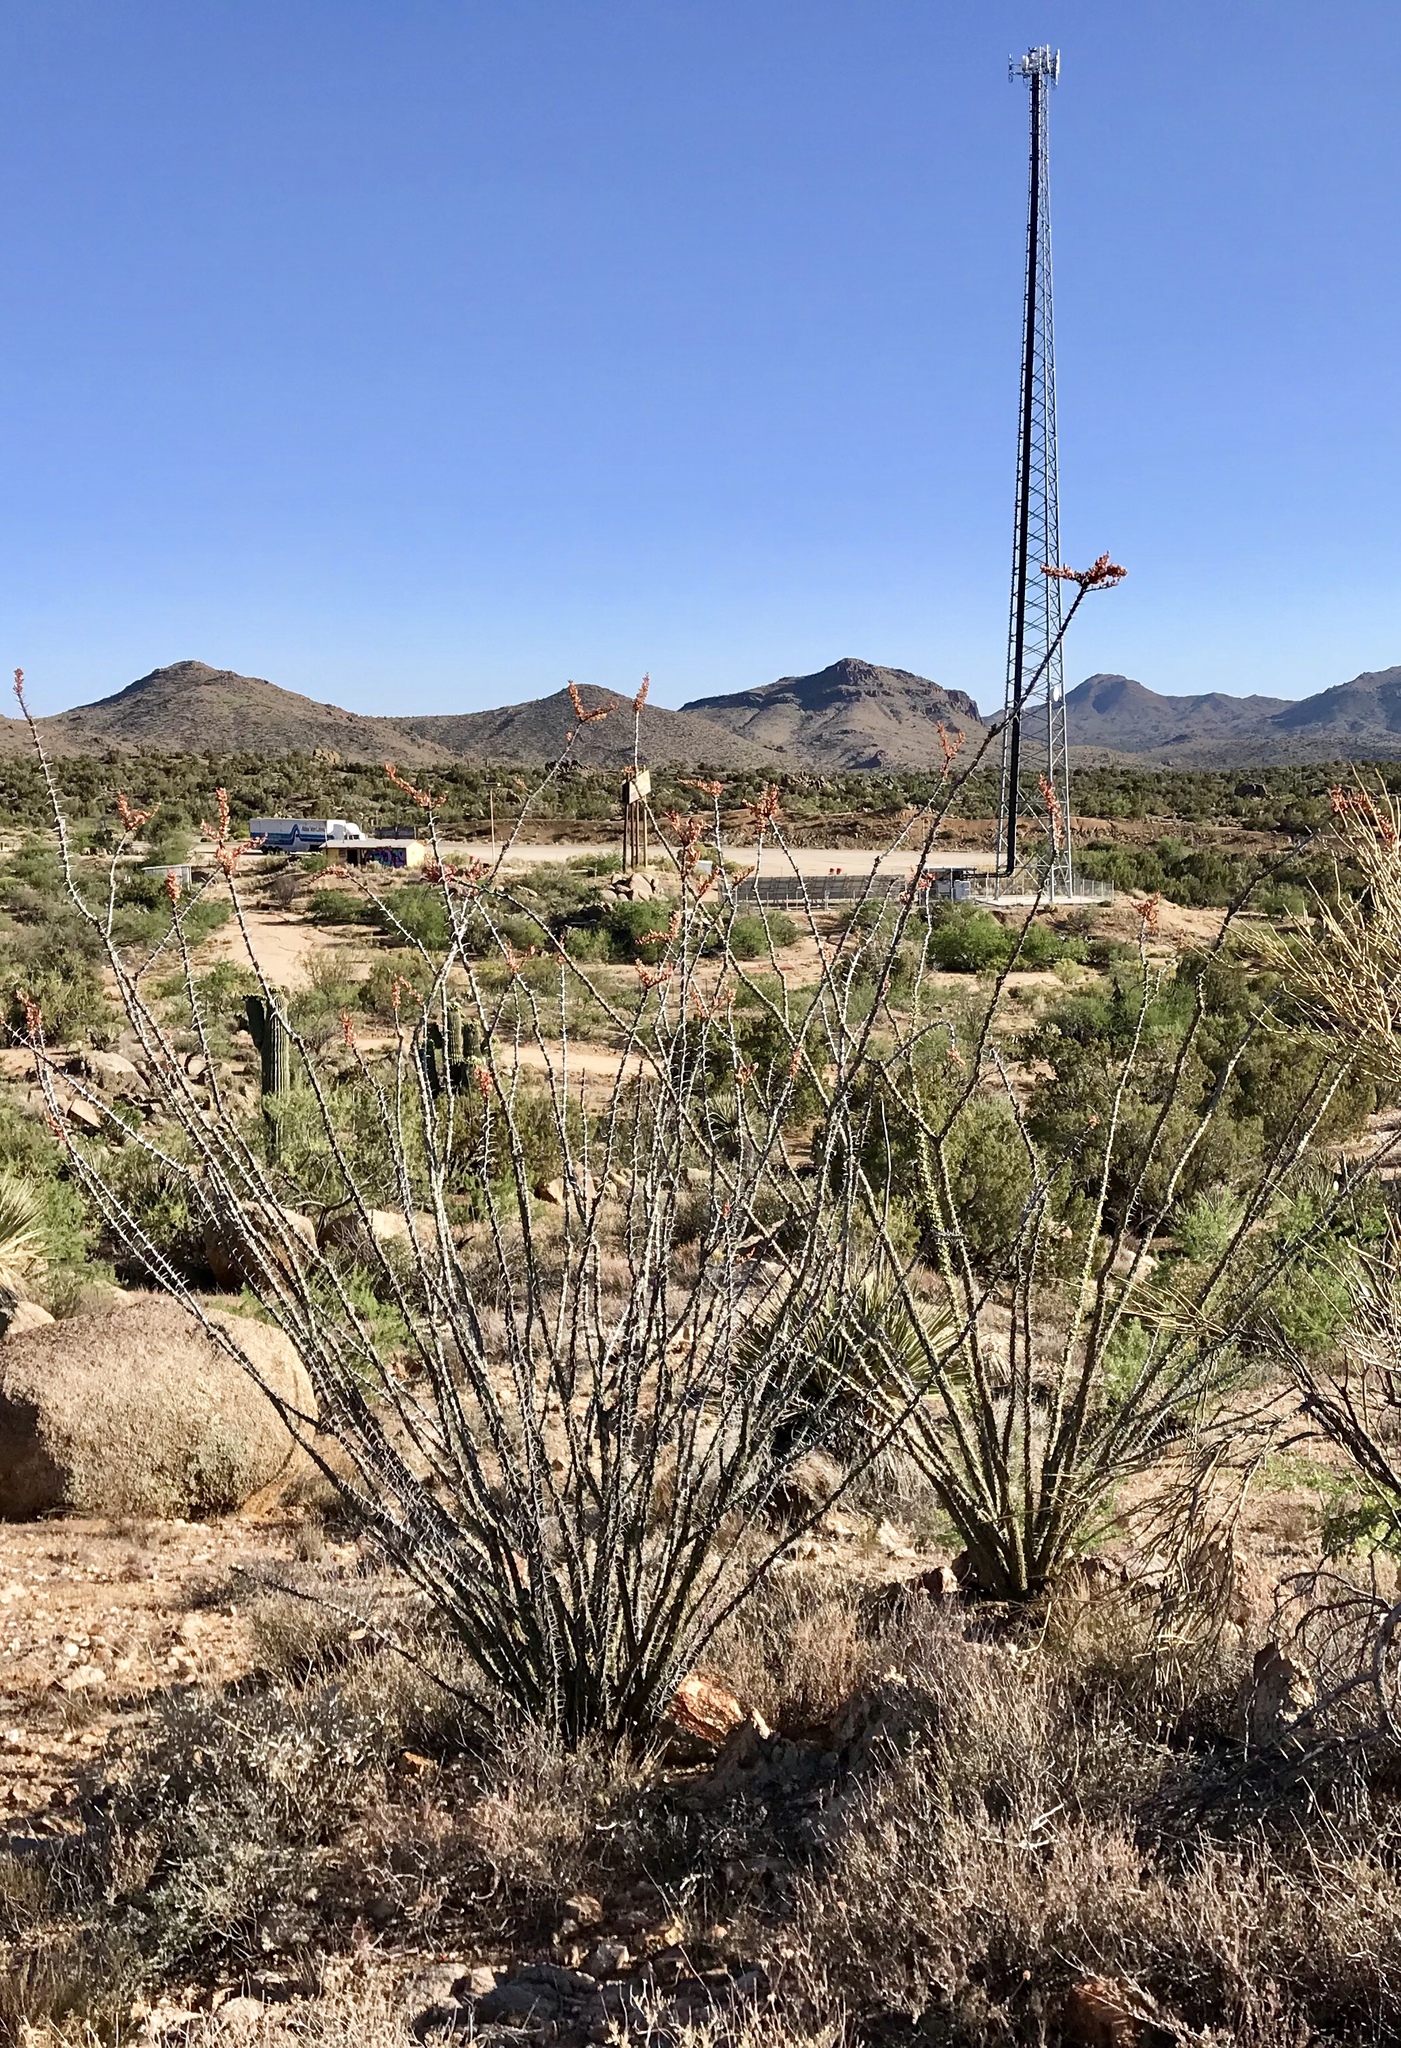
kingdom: Plantae
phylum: Tracheophyta
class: Magnoliopsida
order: Ericales
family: Fouquieriaceae
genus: Fouquieria
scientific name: Fouquieria splendens
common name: Vine-cactus
